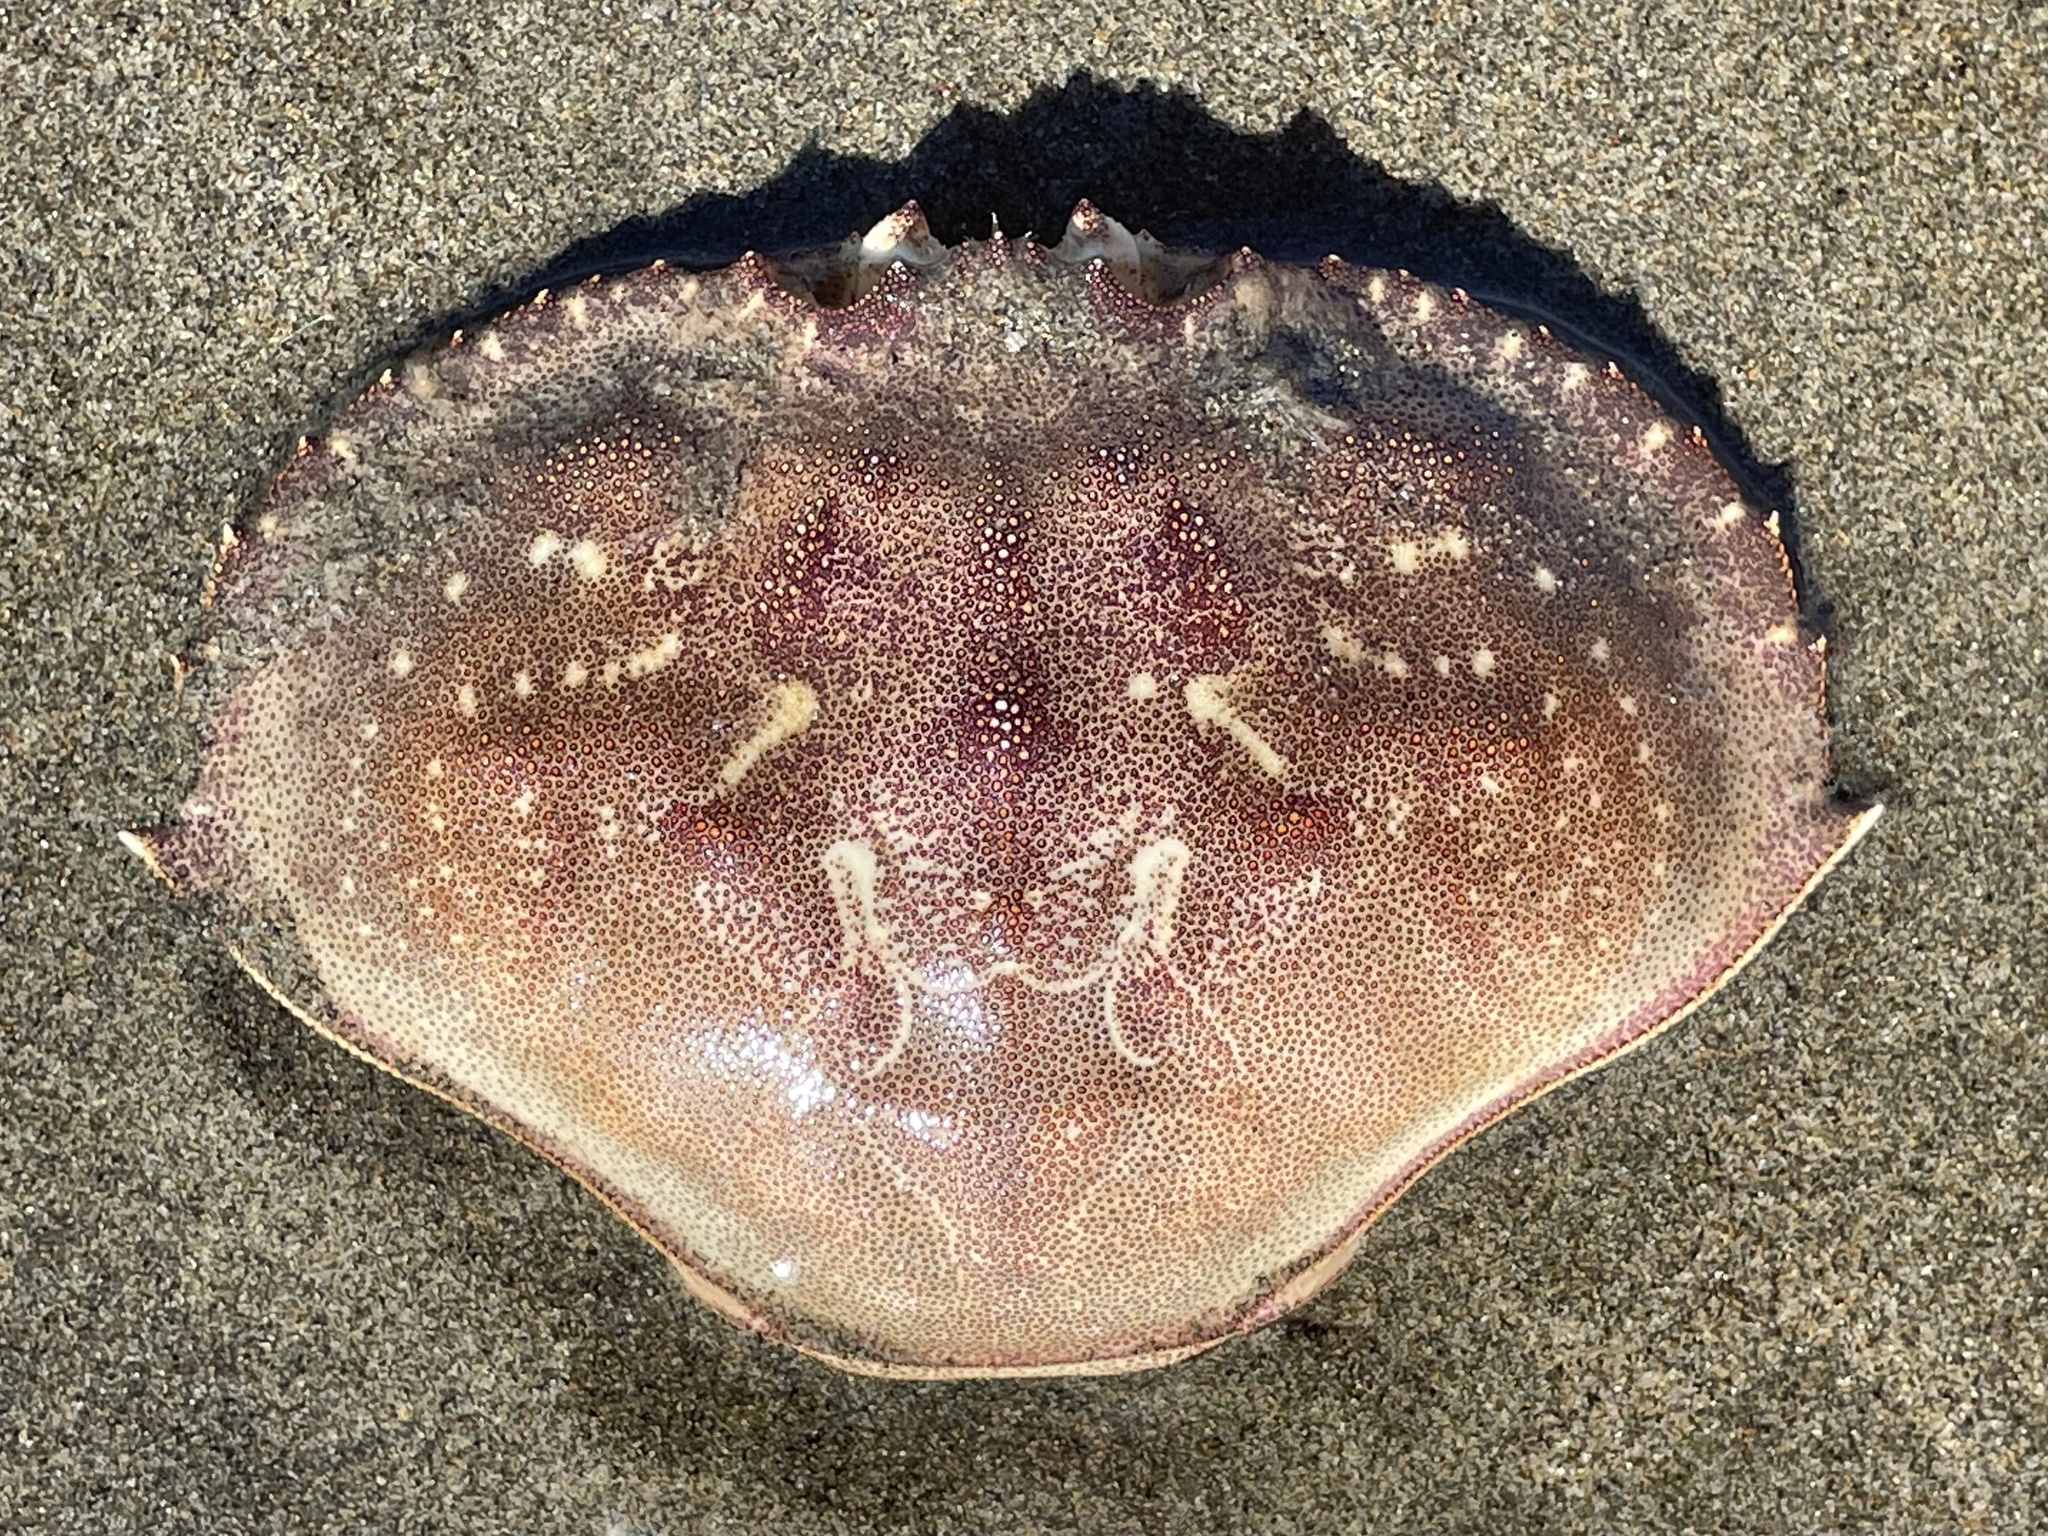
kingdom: Animalia
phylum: Arthropoda
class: Malacostraca
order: Decapoda
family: Cancridae
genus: Metacarcinus
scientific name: Metacarcinus magister
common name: Californian crab
